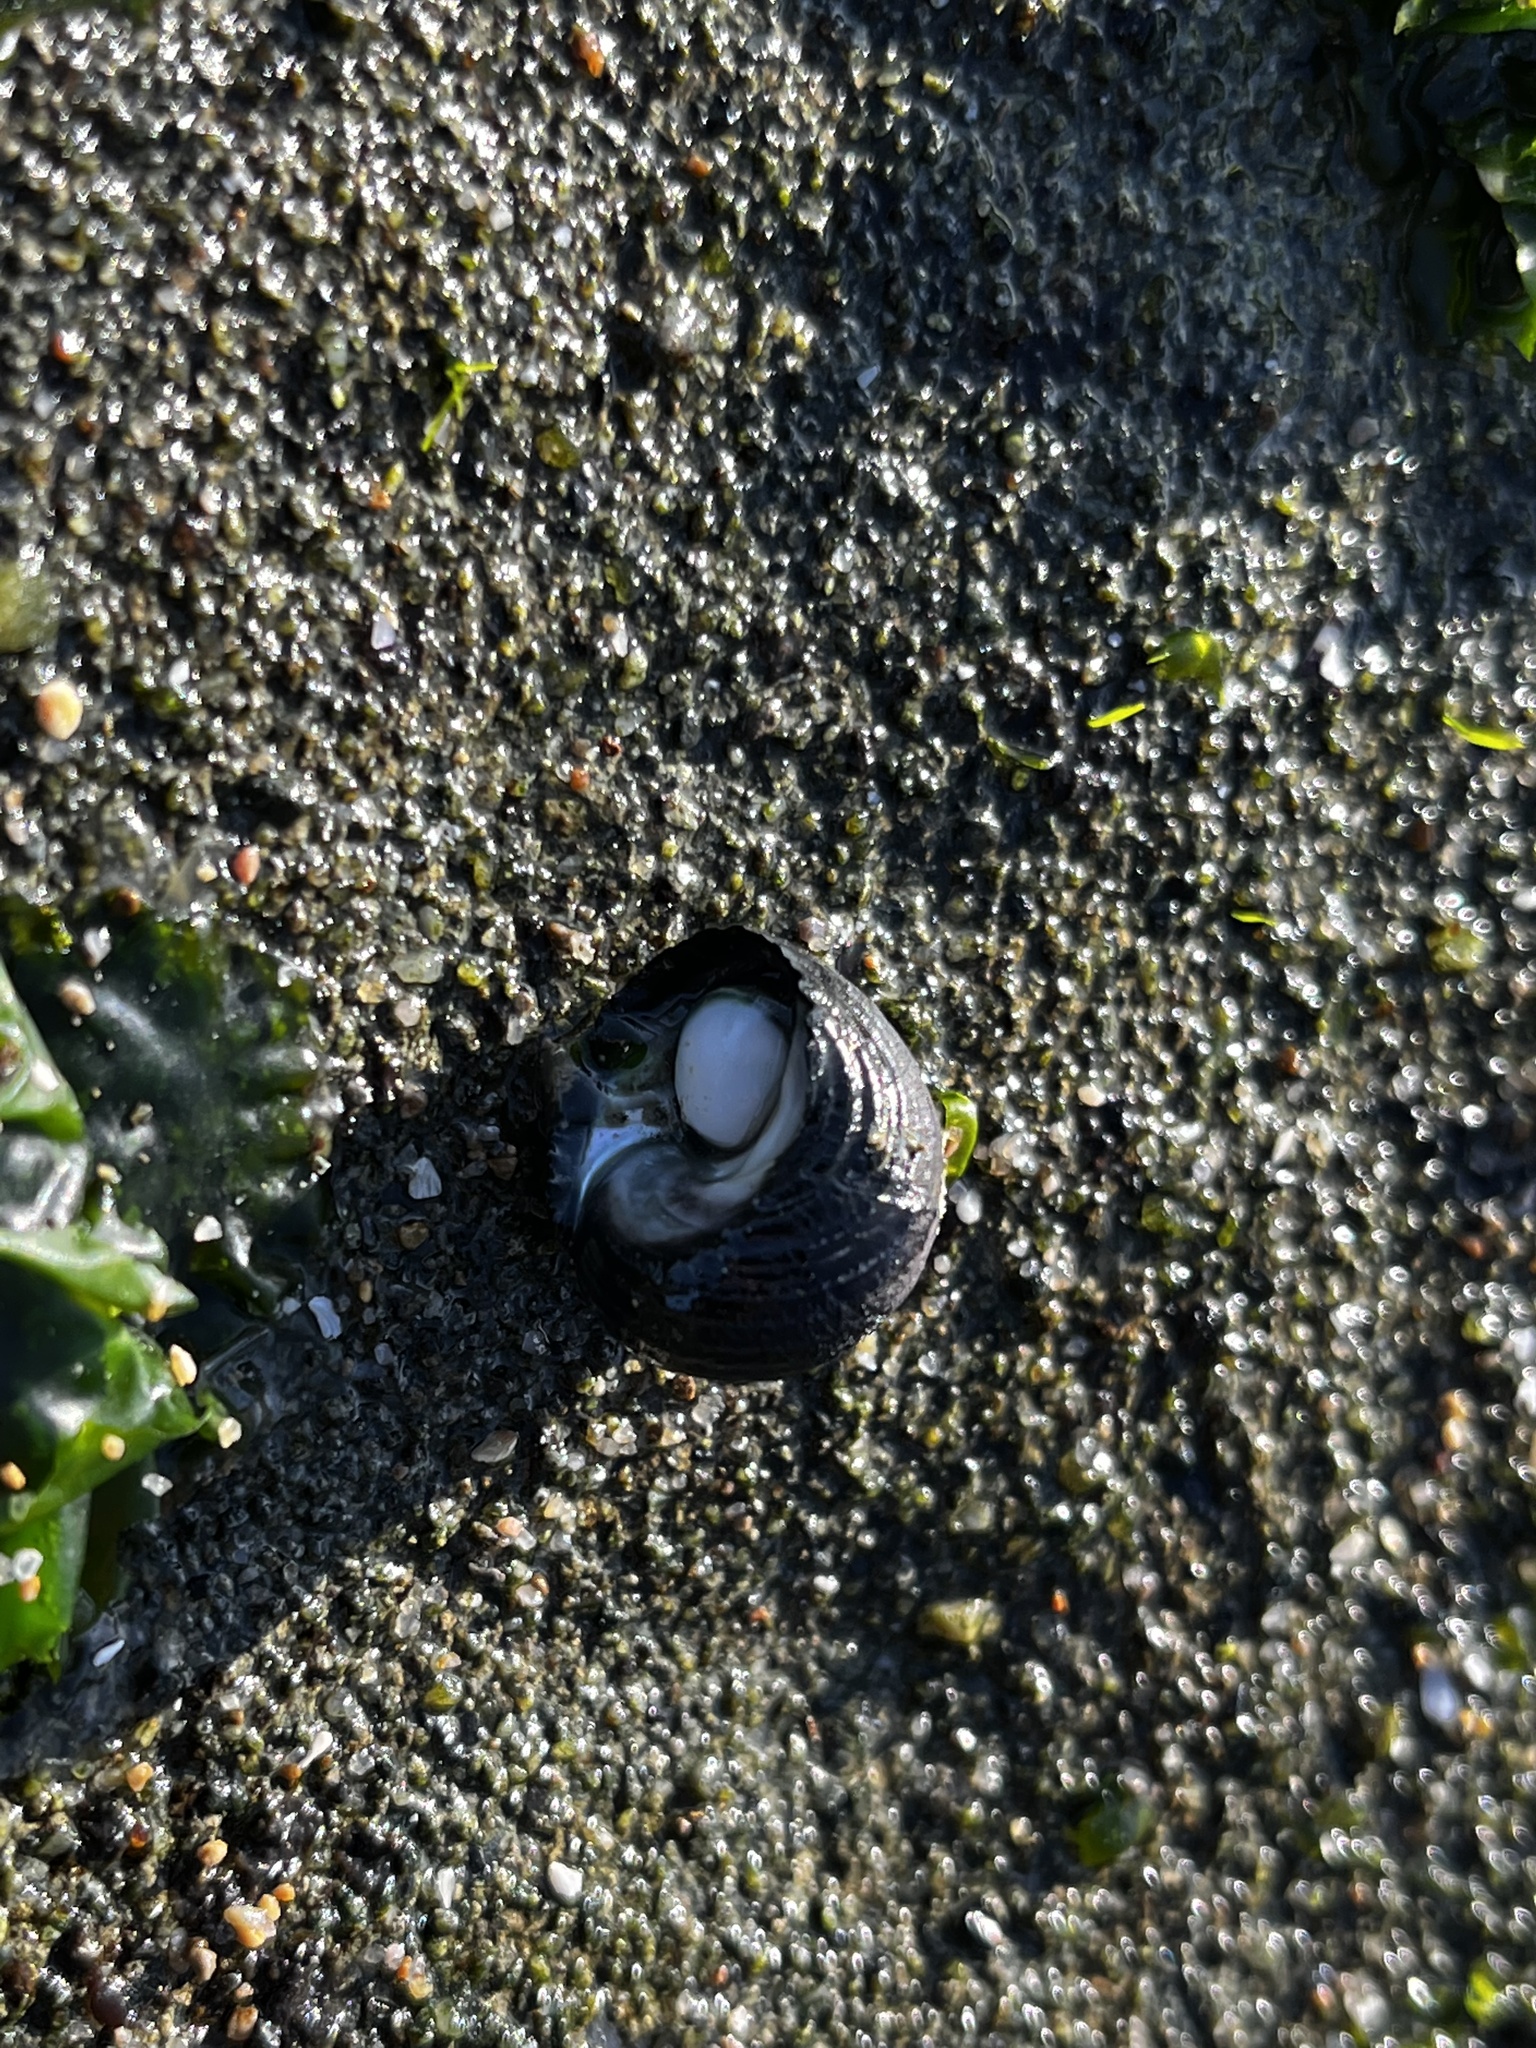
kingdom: Animalia
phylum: Mollusca
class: Gastropoda
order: Trochida
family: Turbinidae
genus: Prisogaster
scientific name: Prisogaster niger
